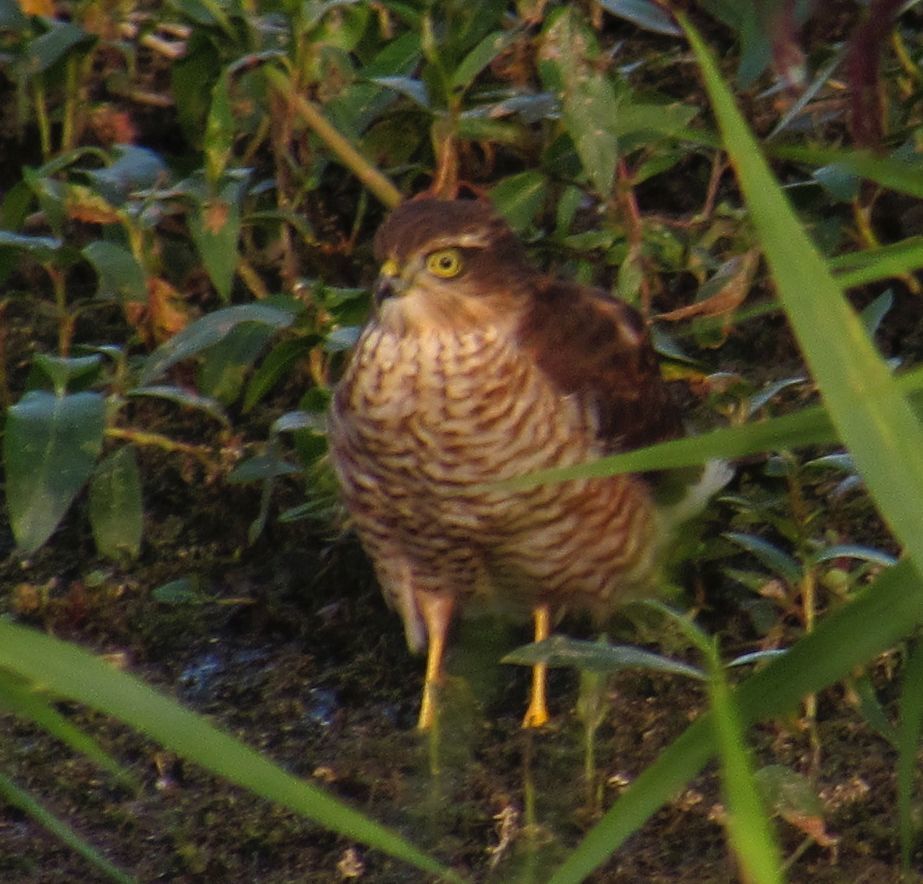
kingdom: Animalia
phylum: Chordata
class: Aves
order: Accipitriformes
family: Accipitridae
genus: Accipiter
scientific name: Accipiter nisus
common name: Eurasian sparrowhawk
